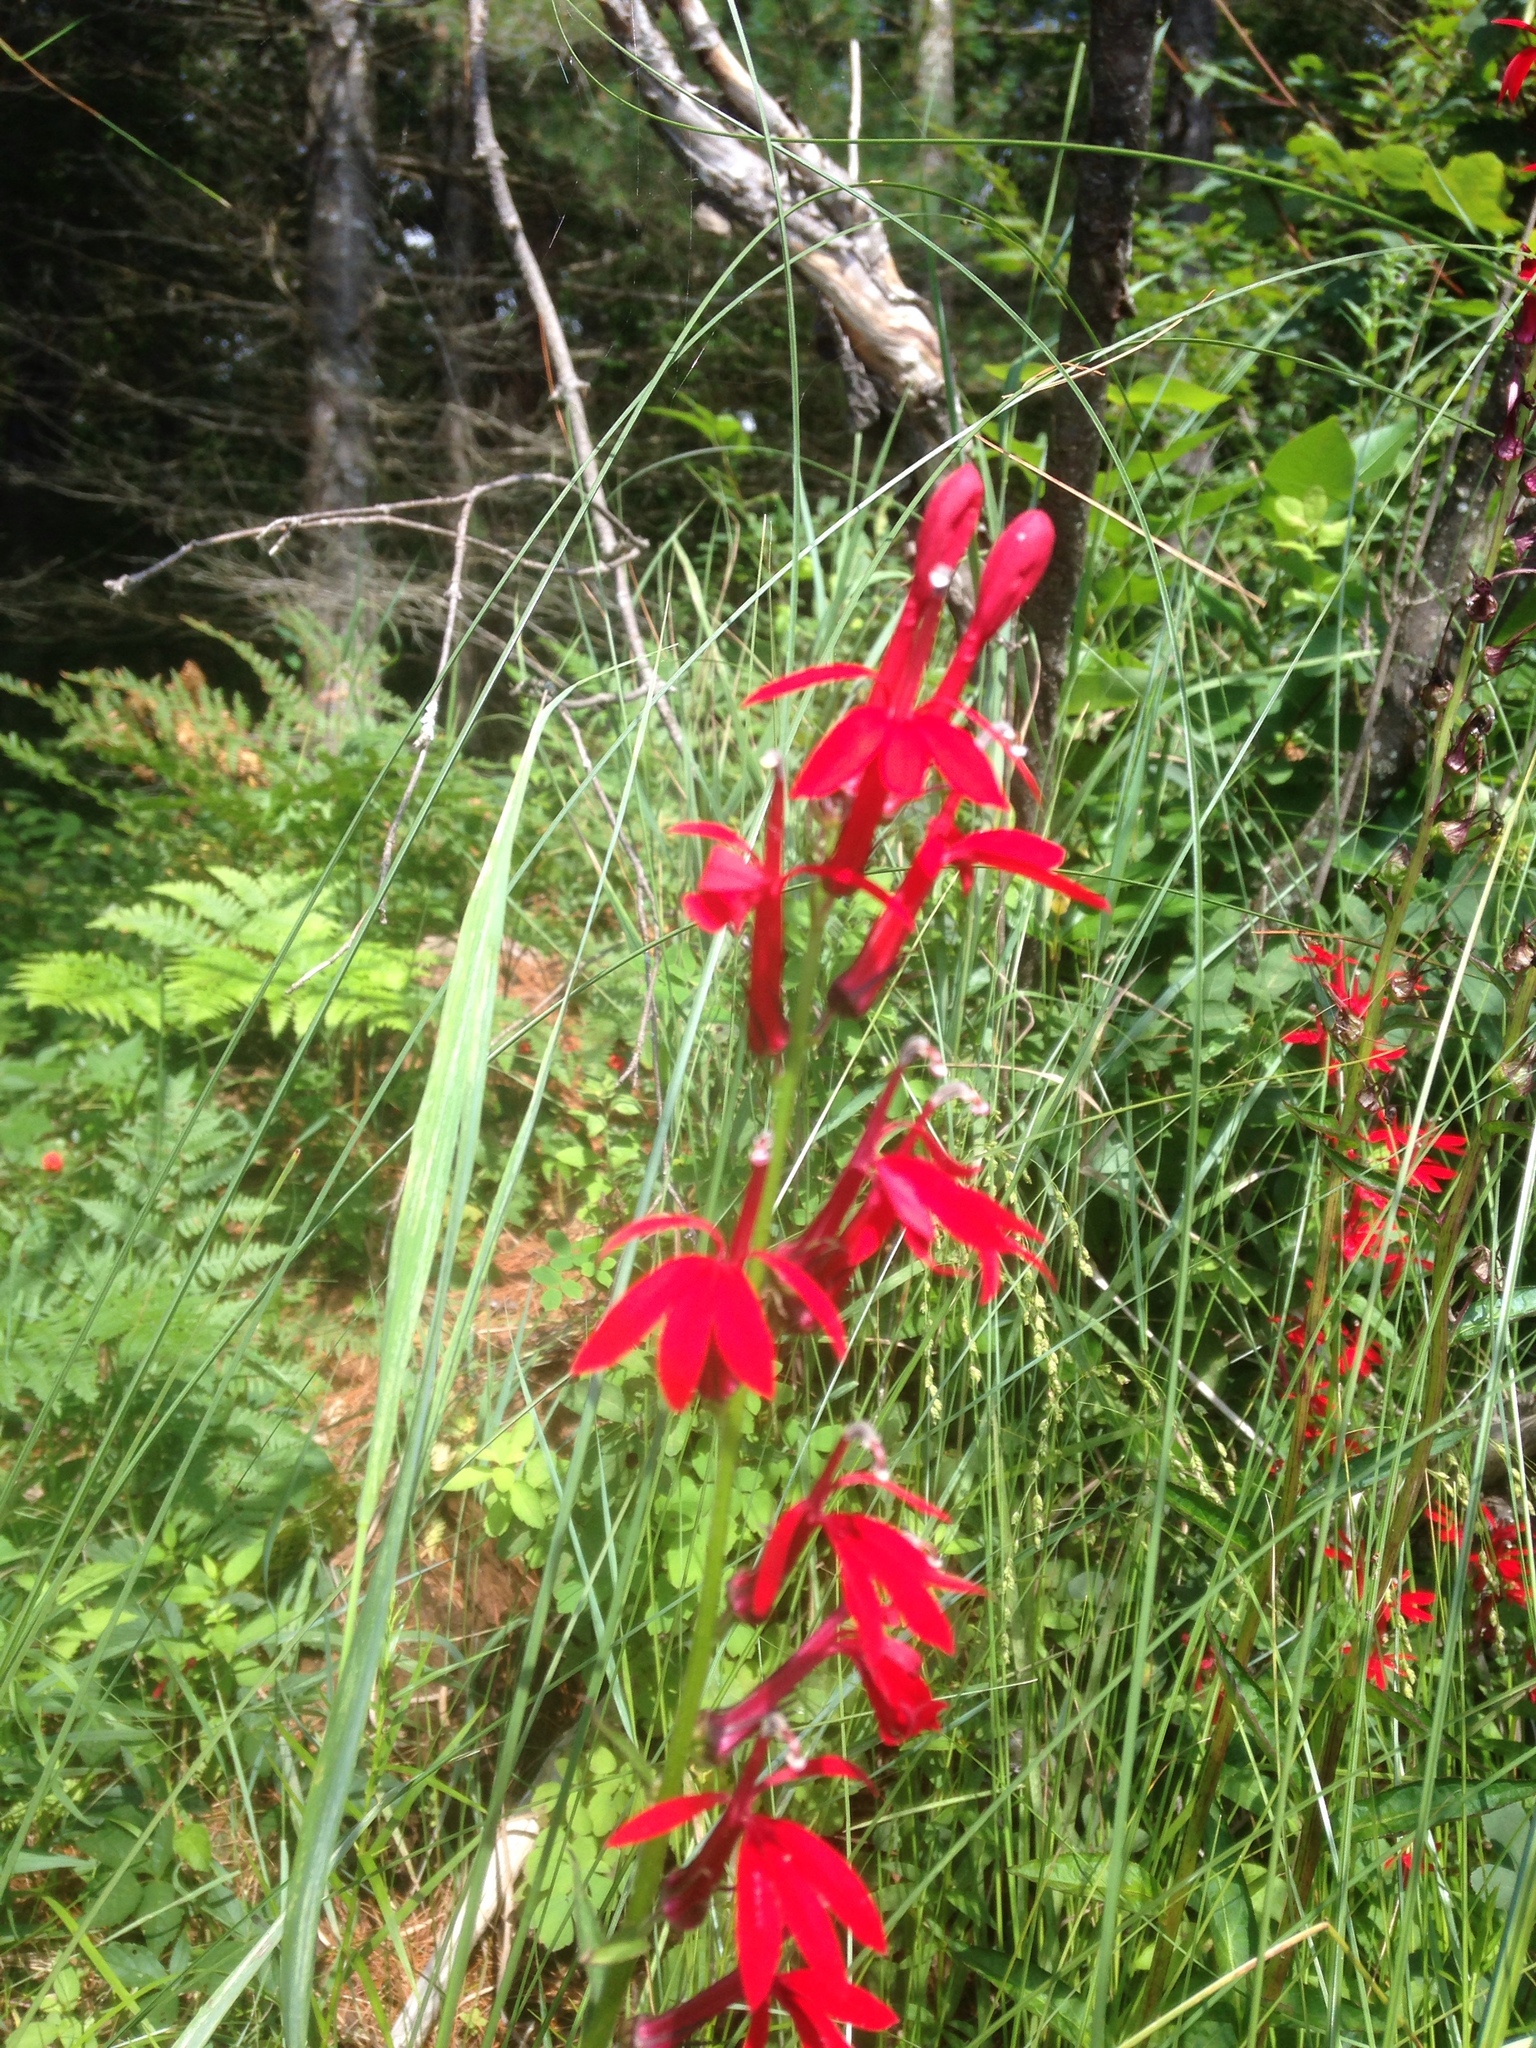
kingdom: Plantae
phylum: Tracheophyta
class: Magnoliopsida
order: Asterales
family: Campanulaceae
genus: Lobelia
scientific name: Lobelia cardinalis
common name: Cardinal flower
